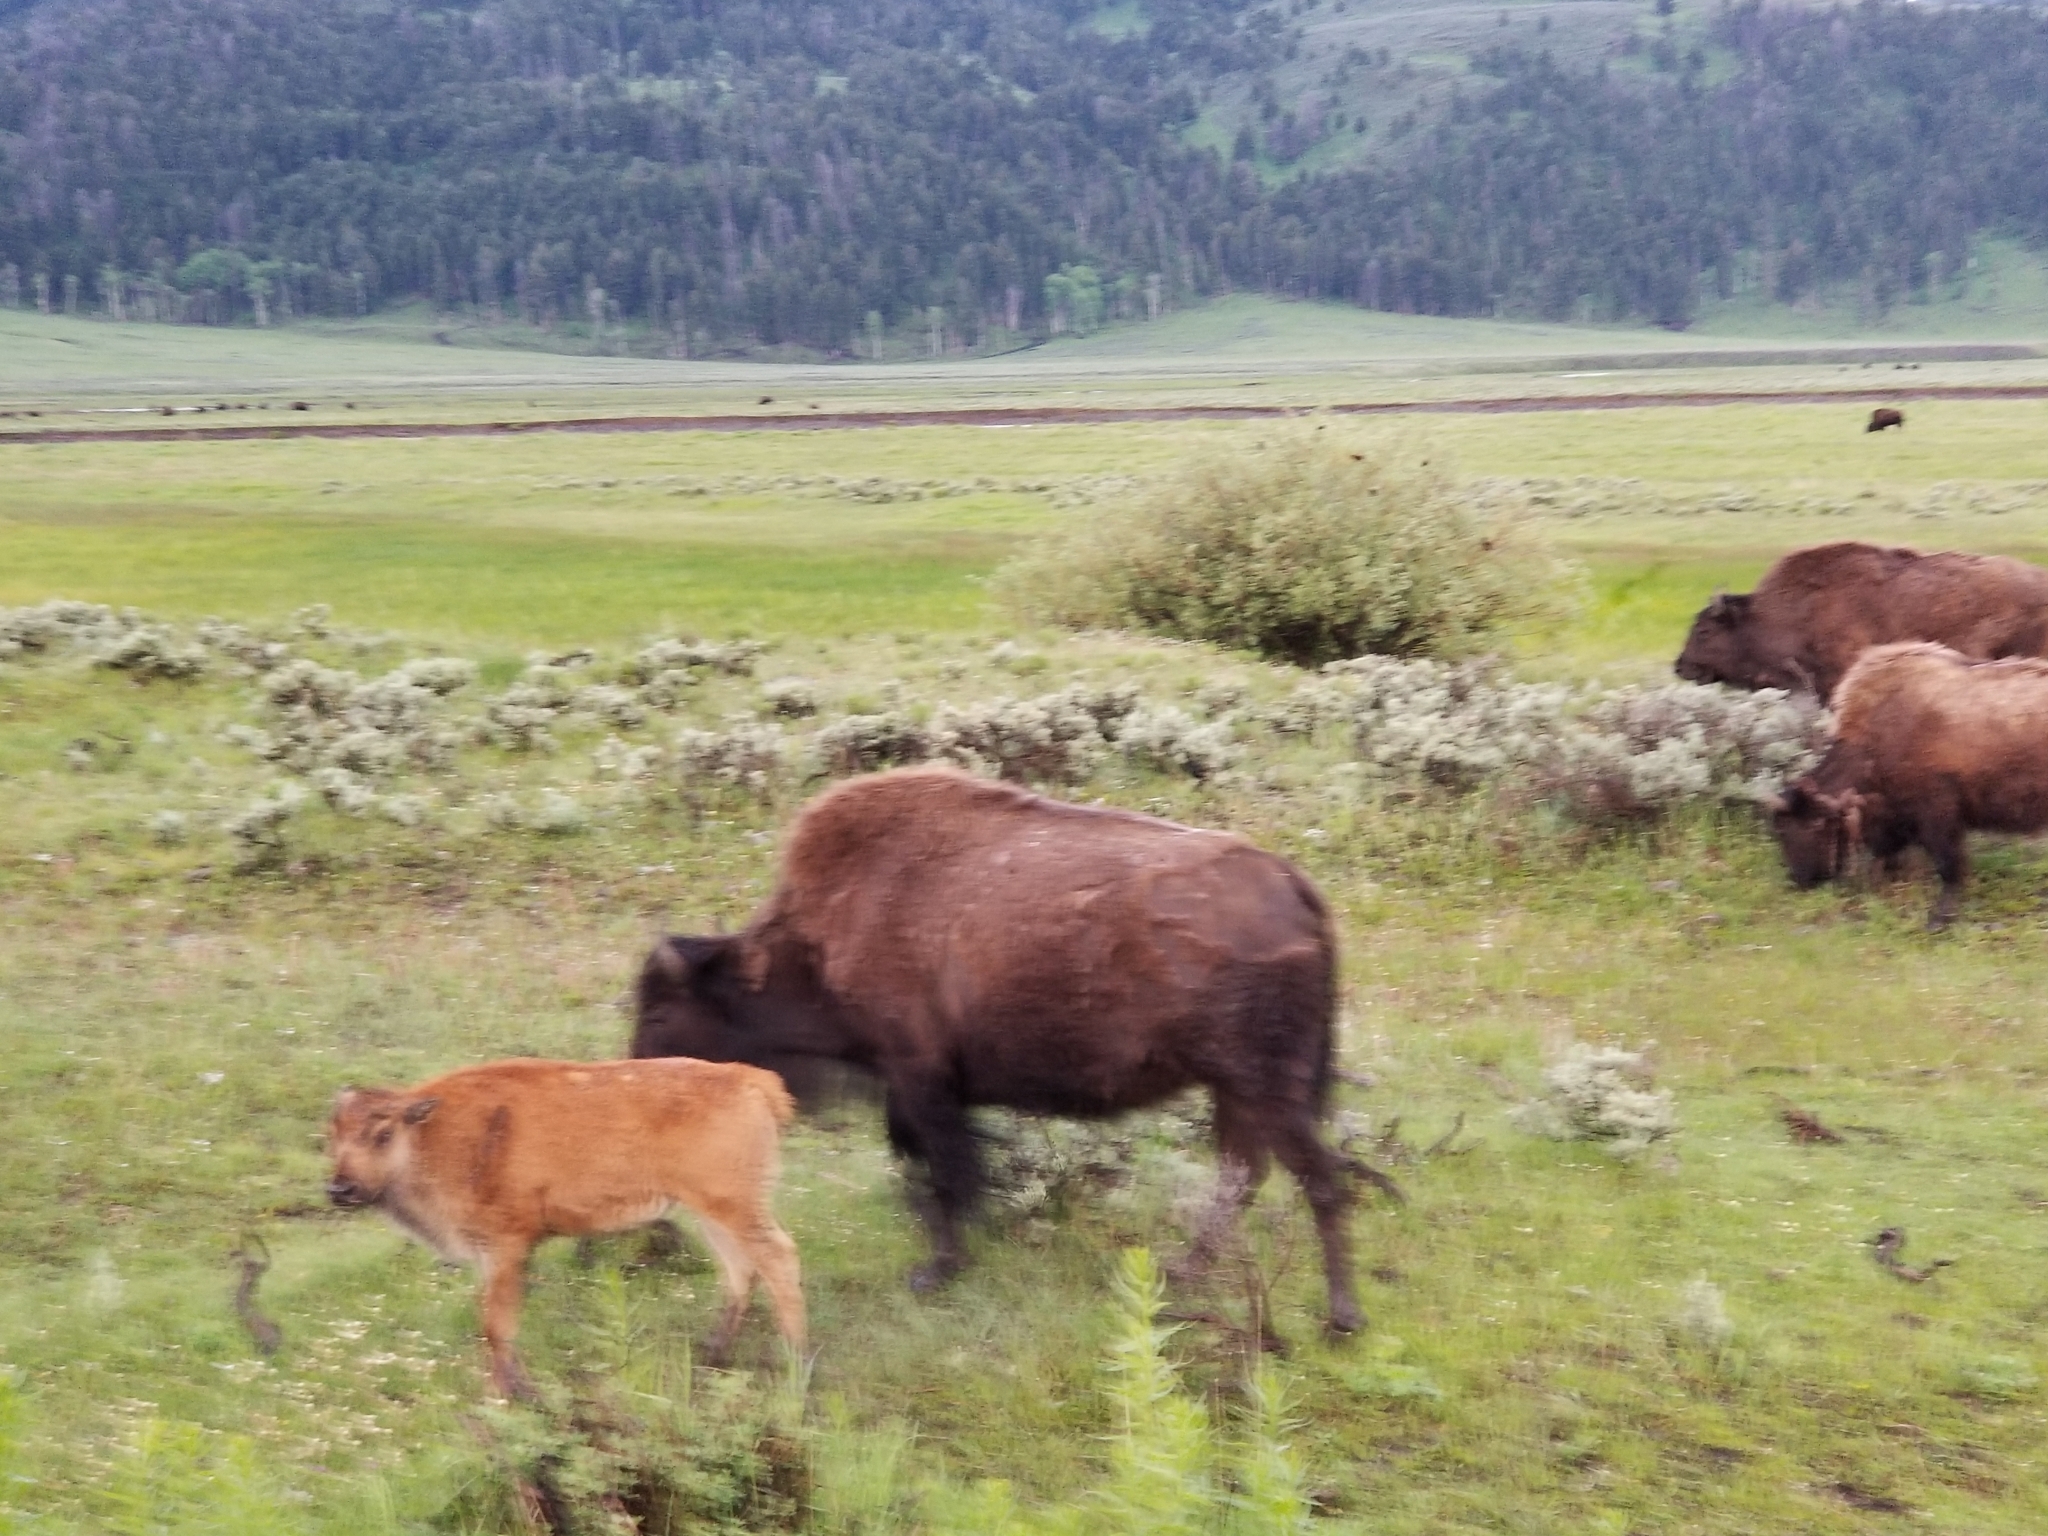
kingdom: Animalia
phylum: Chordata
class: Mammalia
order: Artiodactyla
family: Bovidae
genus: Bison
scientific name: Bison bison
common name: American bison
